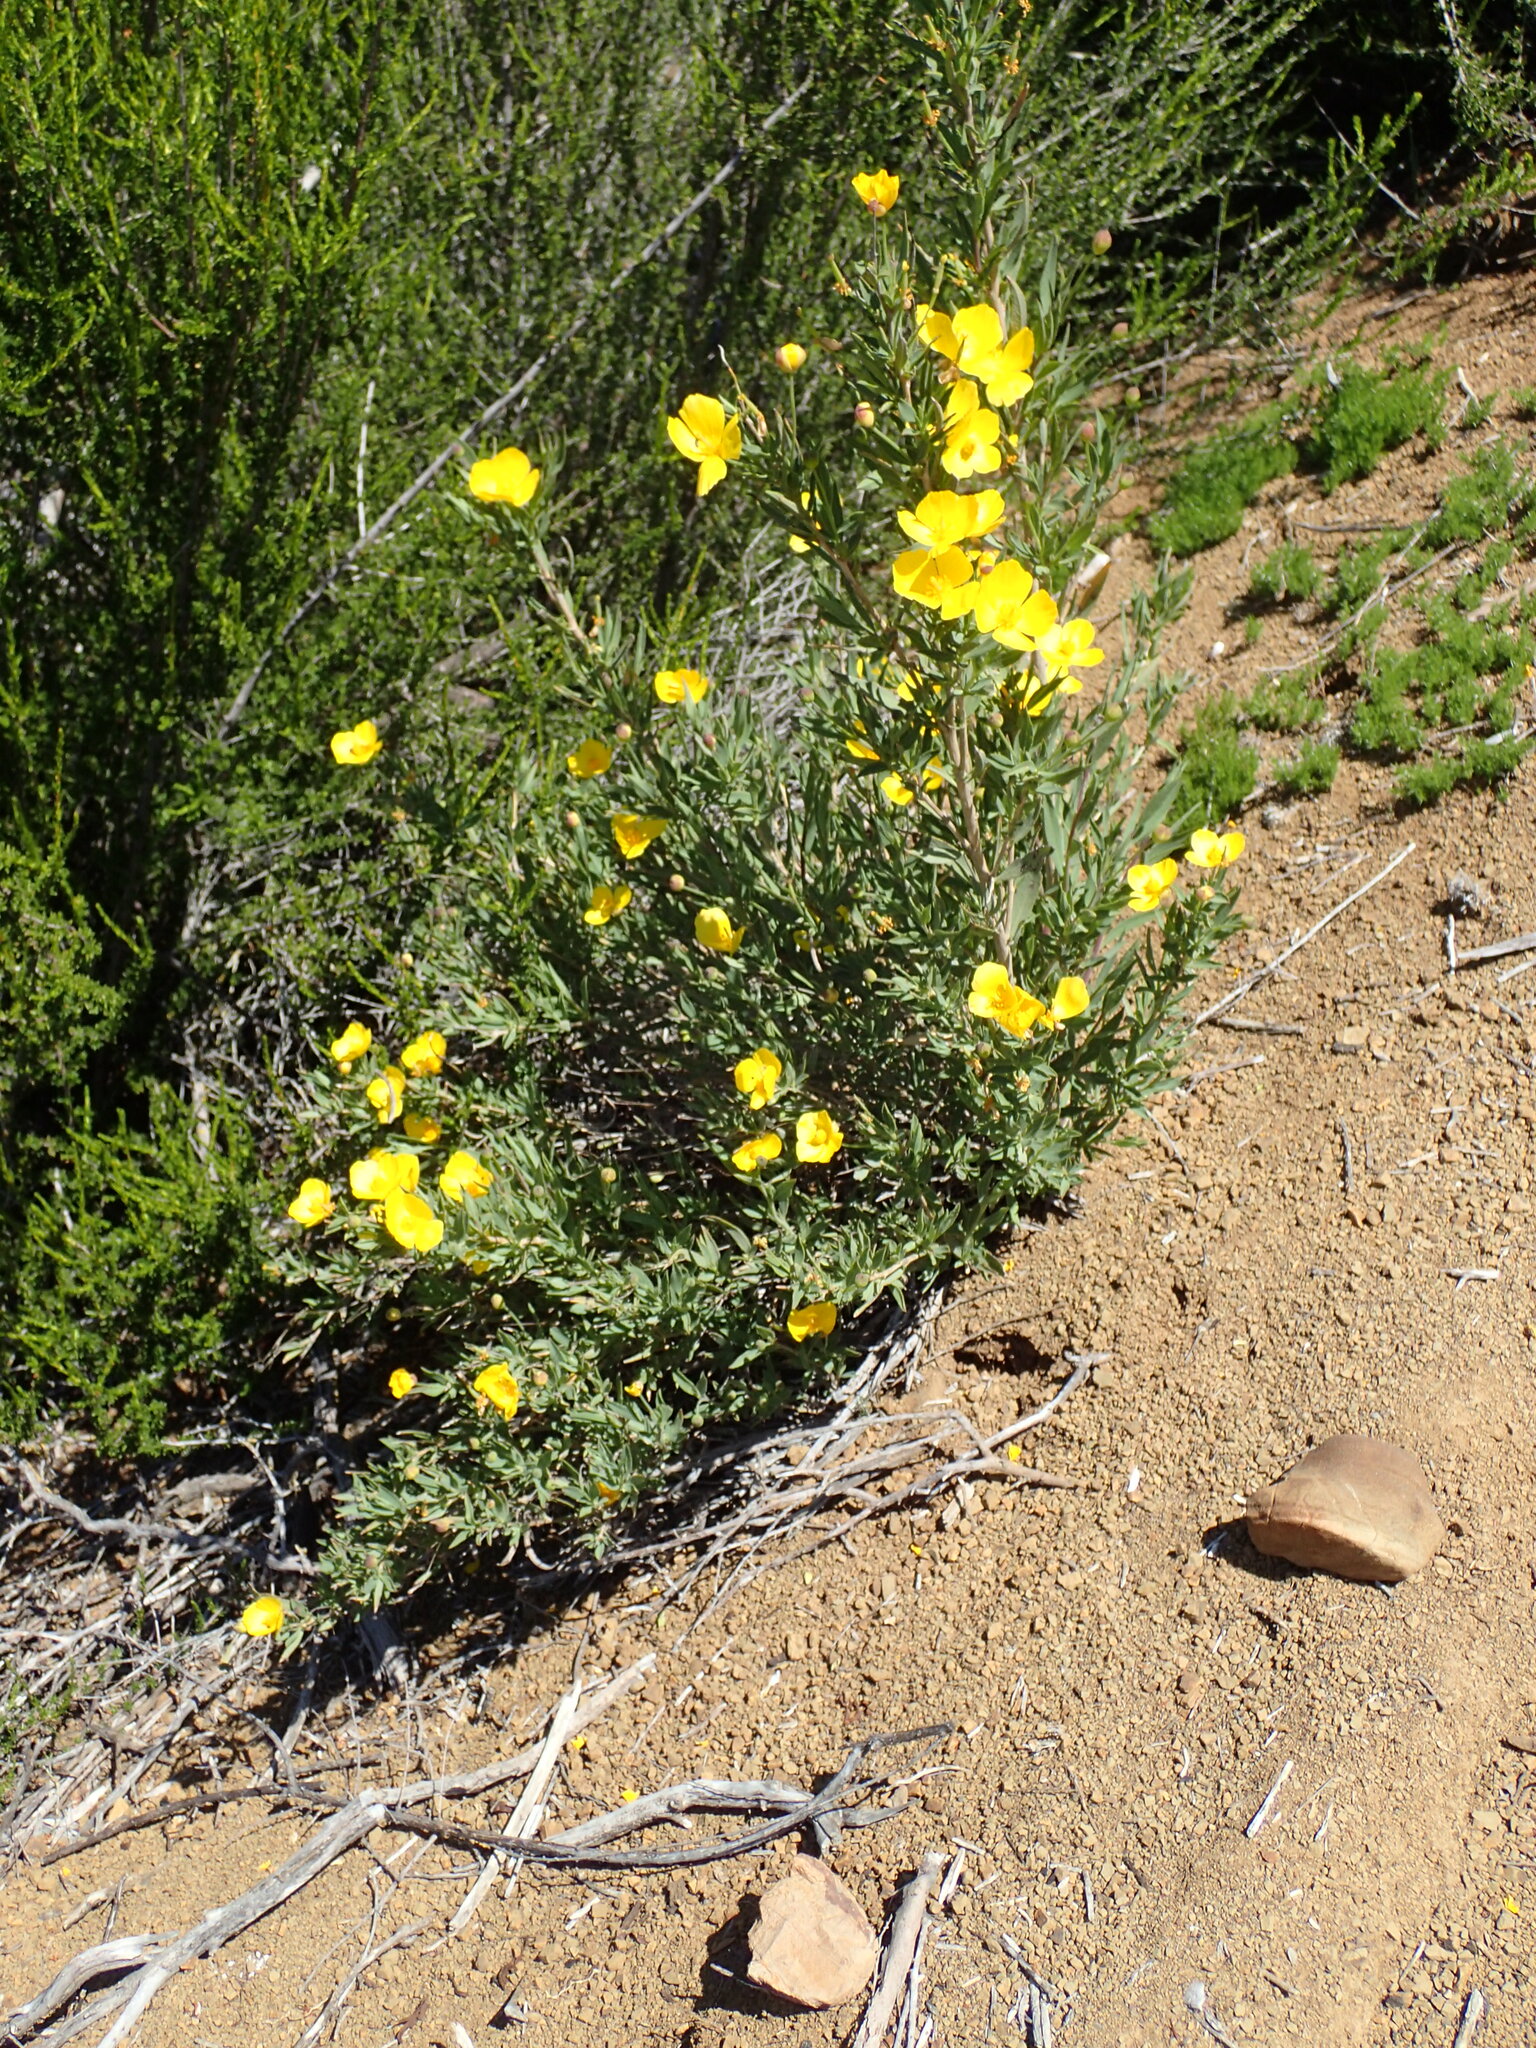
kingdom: Plantae
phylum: Tracheophyta
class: Magnoliopsida
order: Ranunculales
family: Papaveraceae
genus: Dendromecon
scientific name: Dendromecon rigida
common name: Tree poppy
